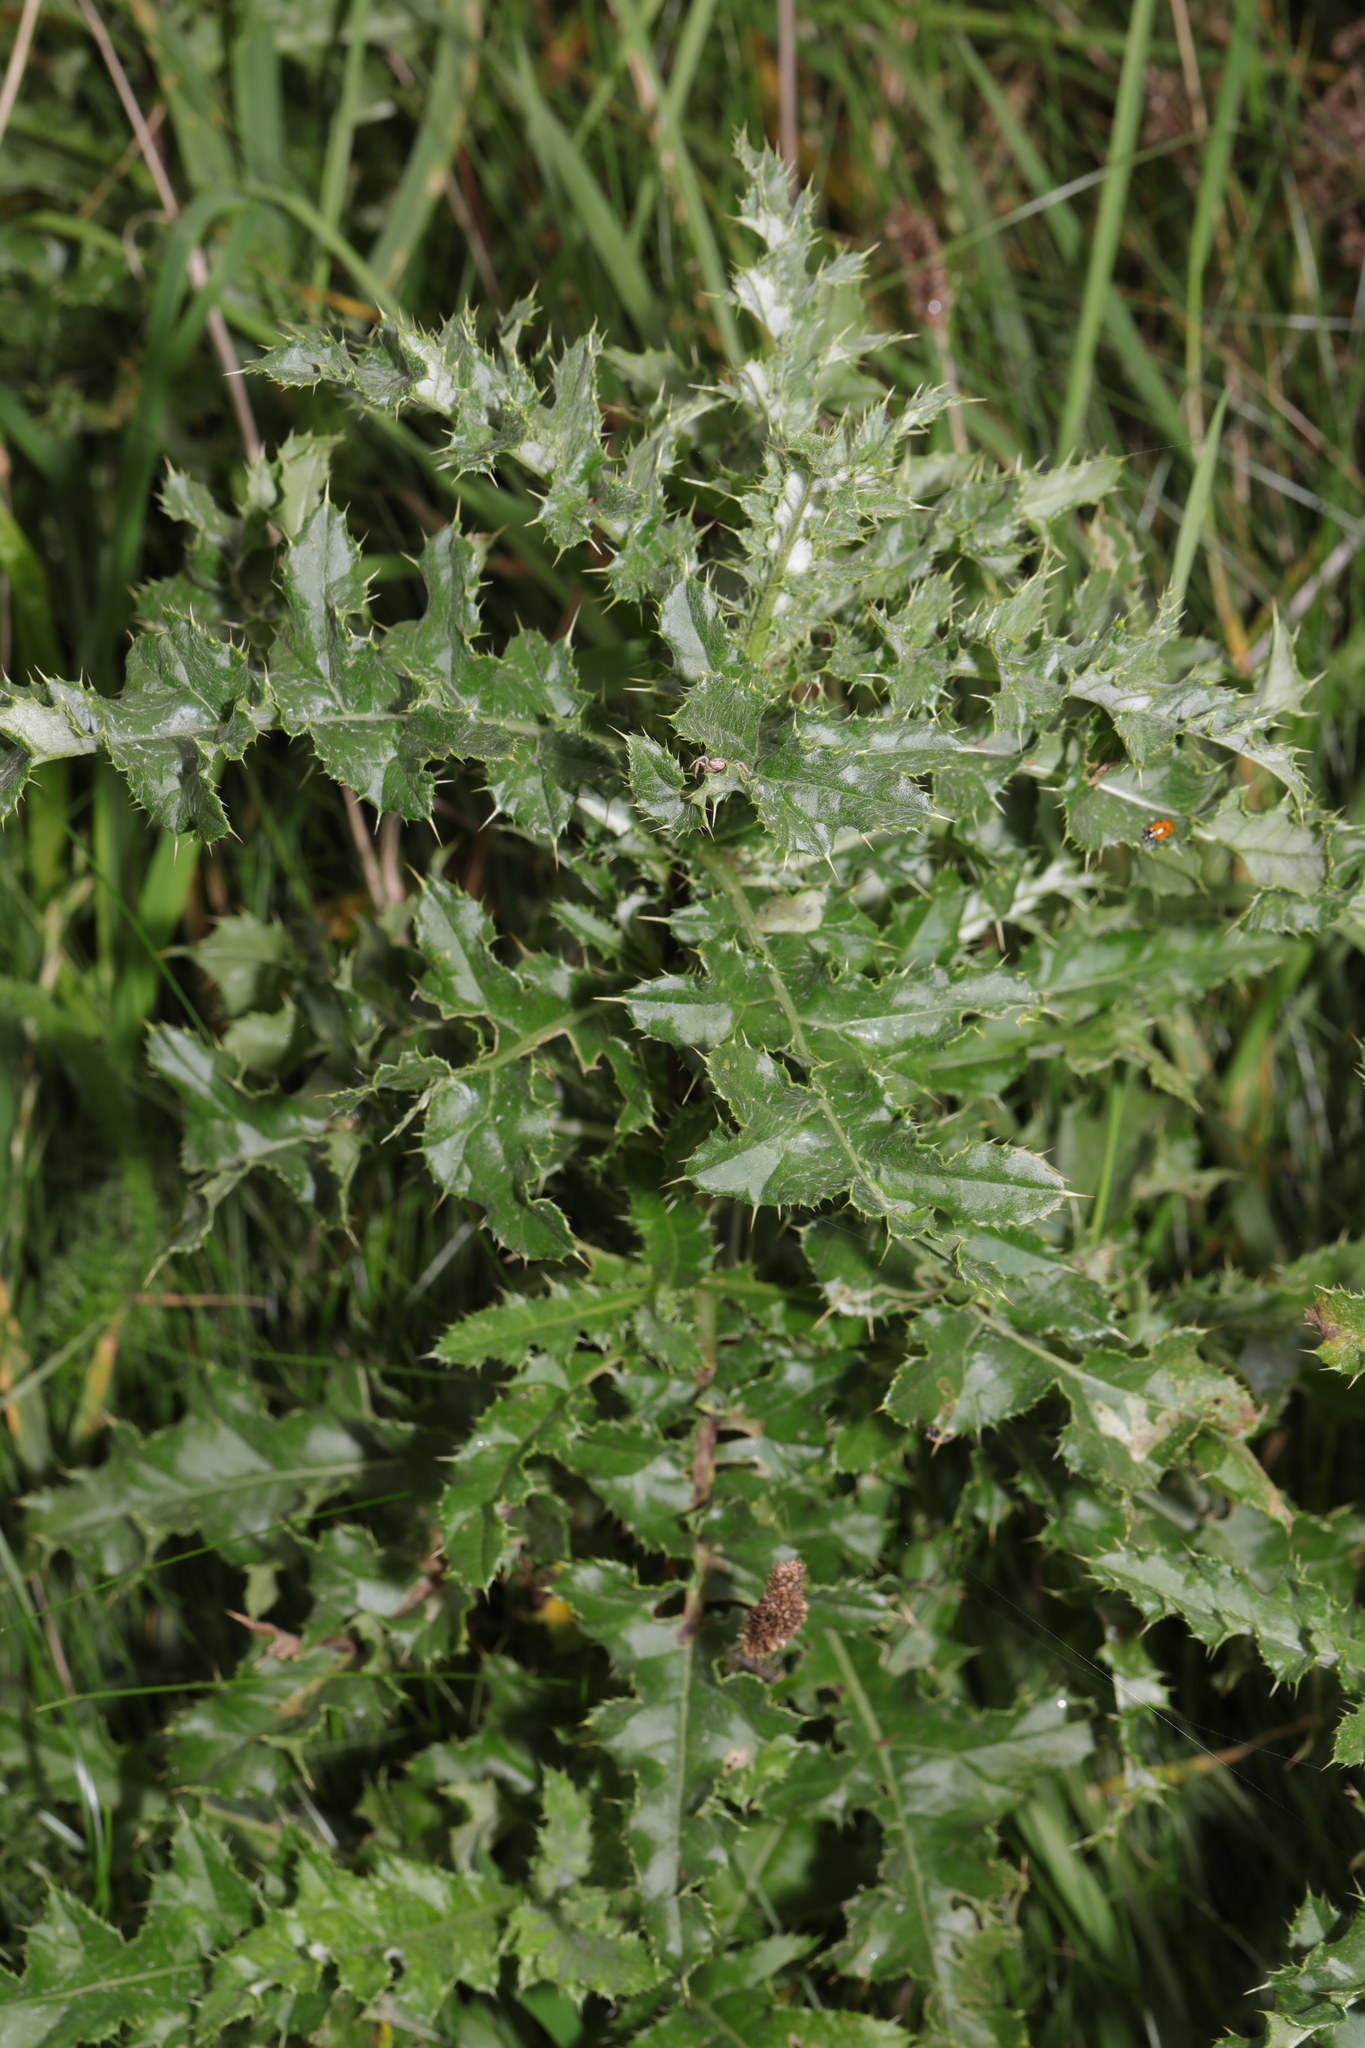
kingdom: Plantae
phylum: Tracheophyta
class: Magnoliopsida
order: Asterales
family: Asteraceae
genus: Cirsium
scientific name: Cirsium arvense
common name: Creeping thistle
